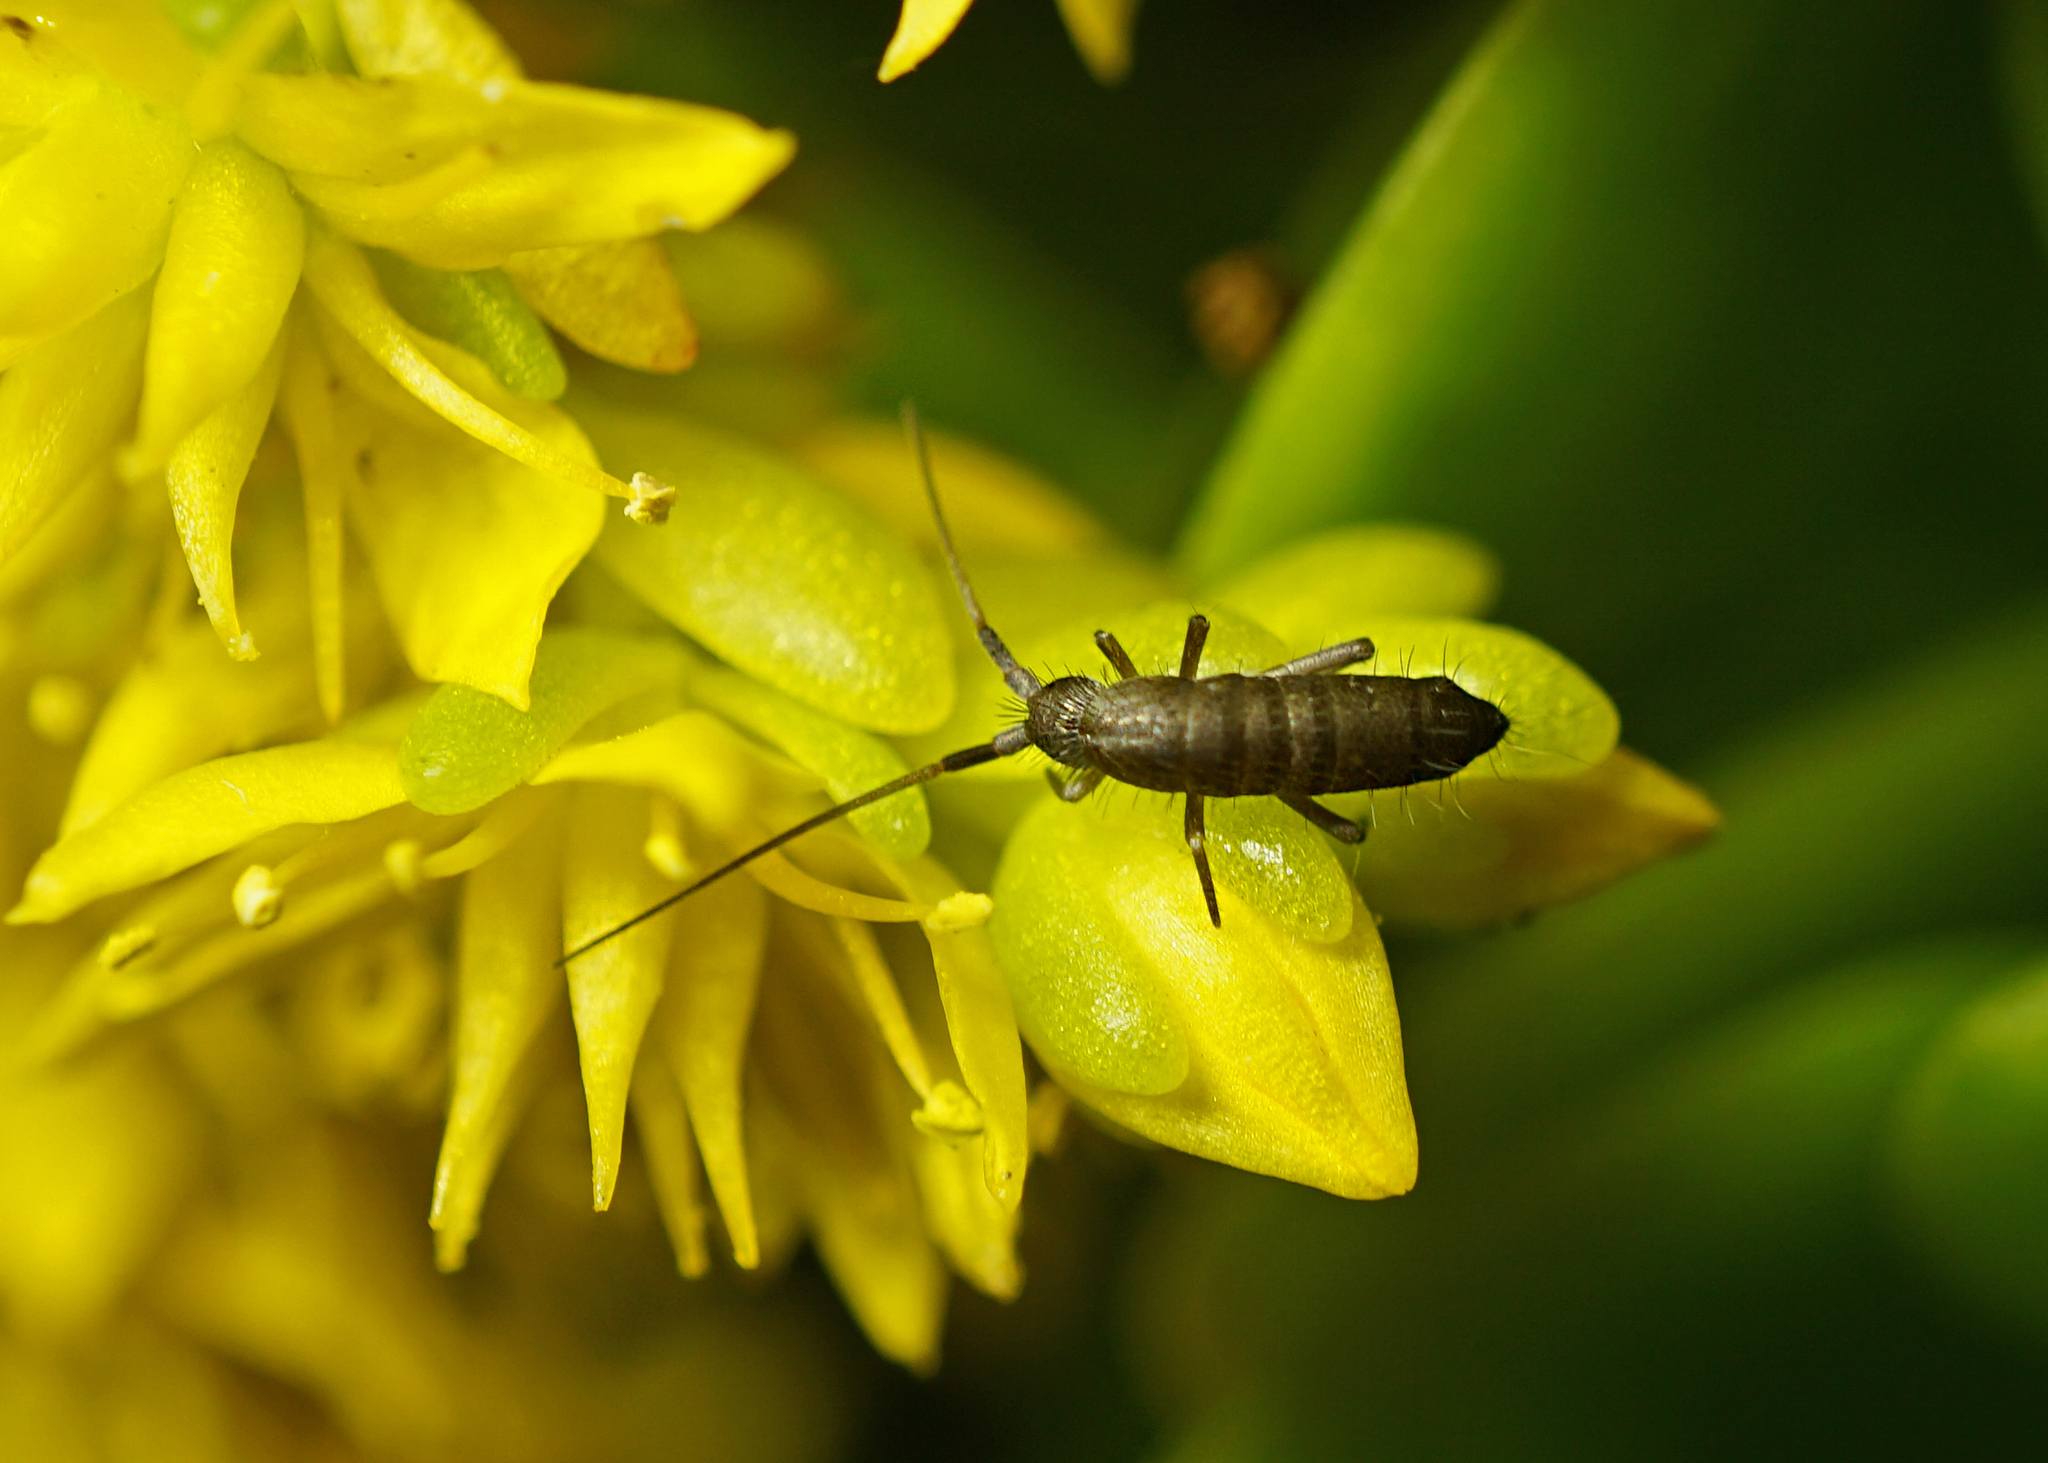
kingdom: Animalia
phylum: Arthropoda
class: Collembola
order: Entomobryomorpha
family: Tomoceridae
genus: Pogonognathellus
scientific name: Pogonognathellus longicornis
